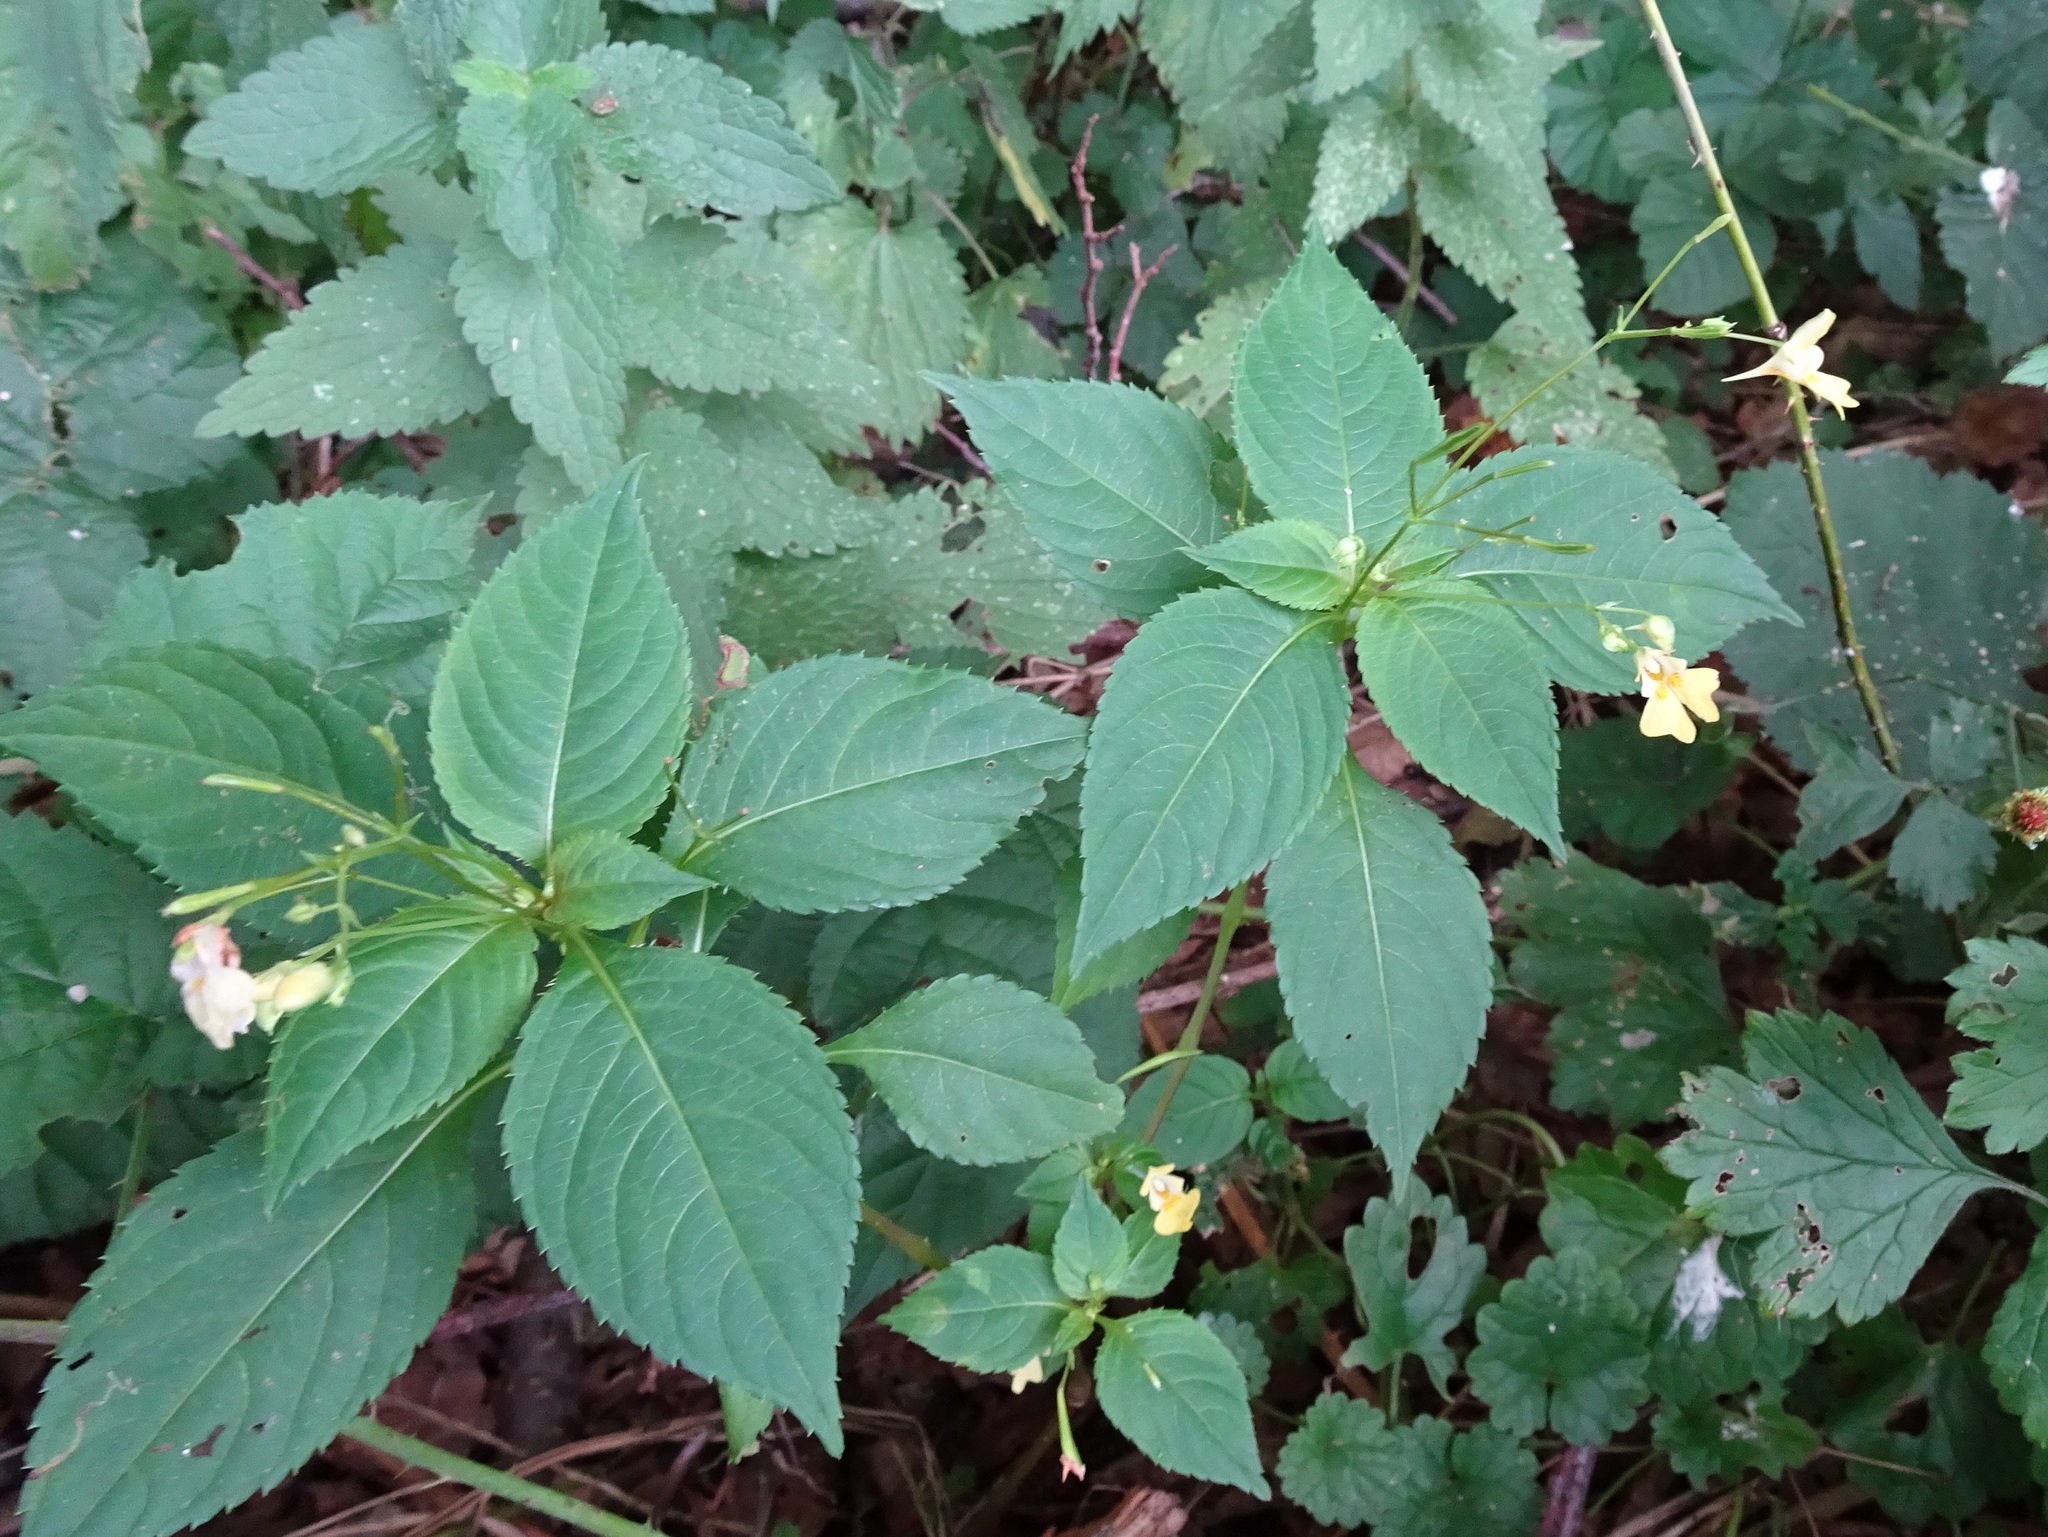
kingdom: Plantae
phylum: Tracheophyta
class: Magnoliopsida
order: Ericales
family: Balsaminaceae
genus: Impatiens
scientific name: Impatiens parviflora
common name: Small balsam
